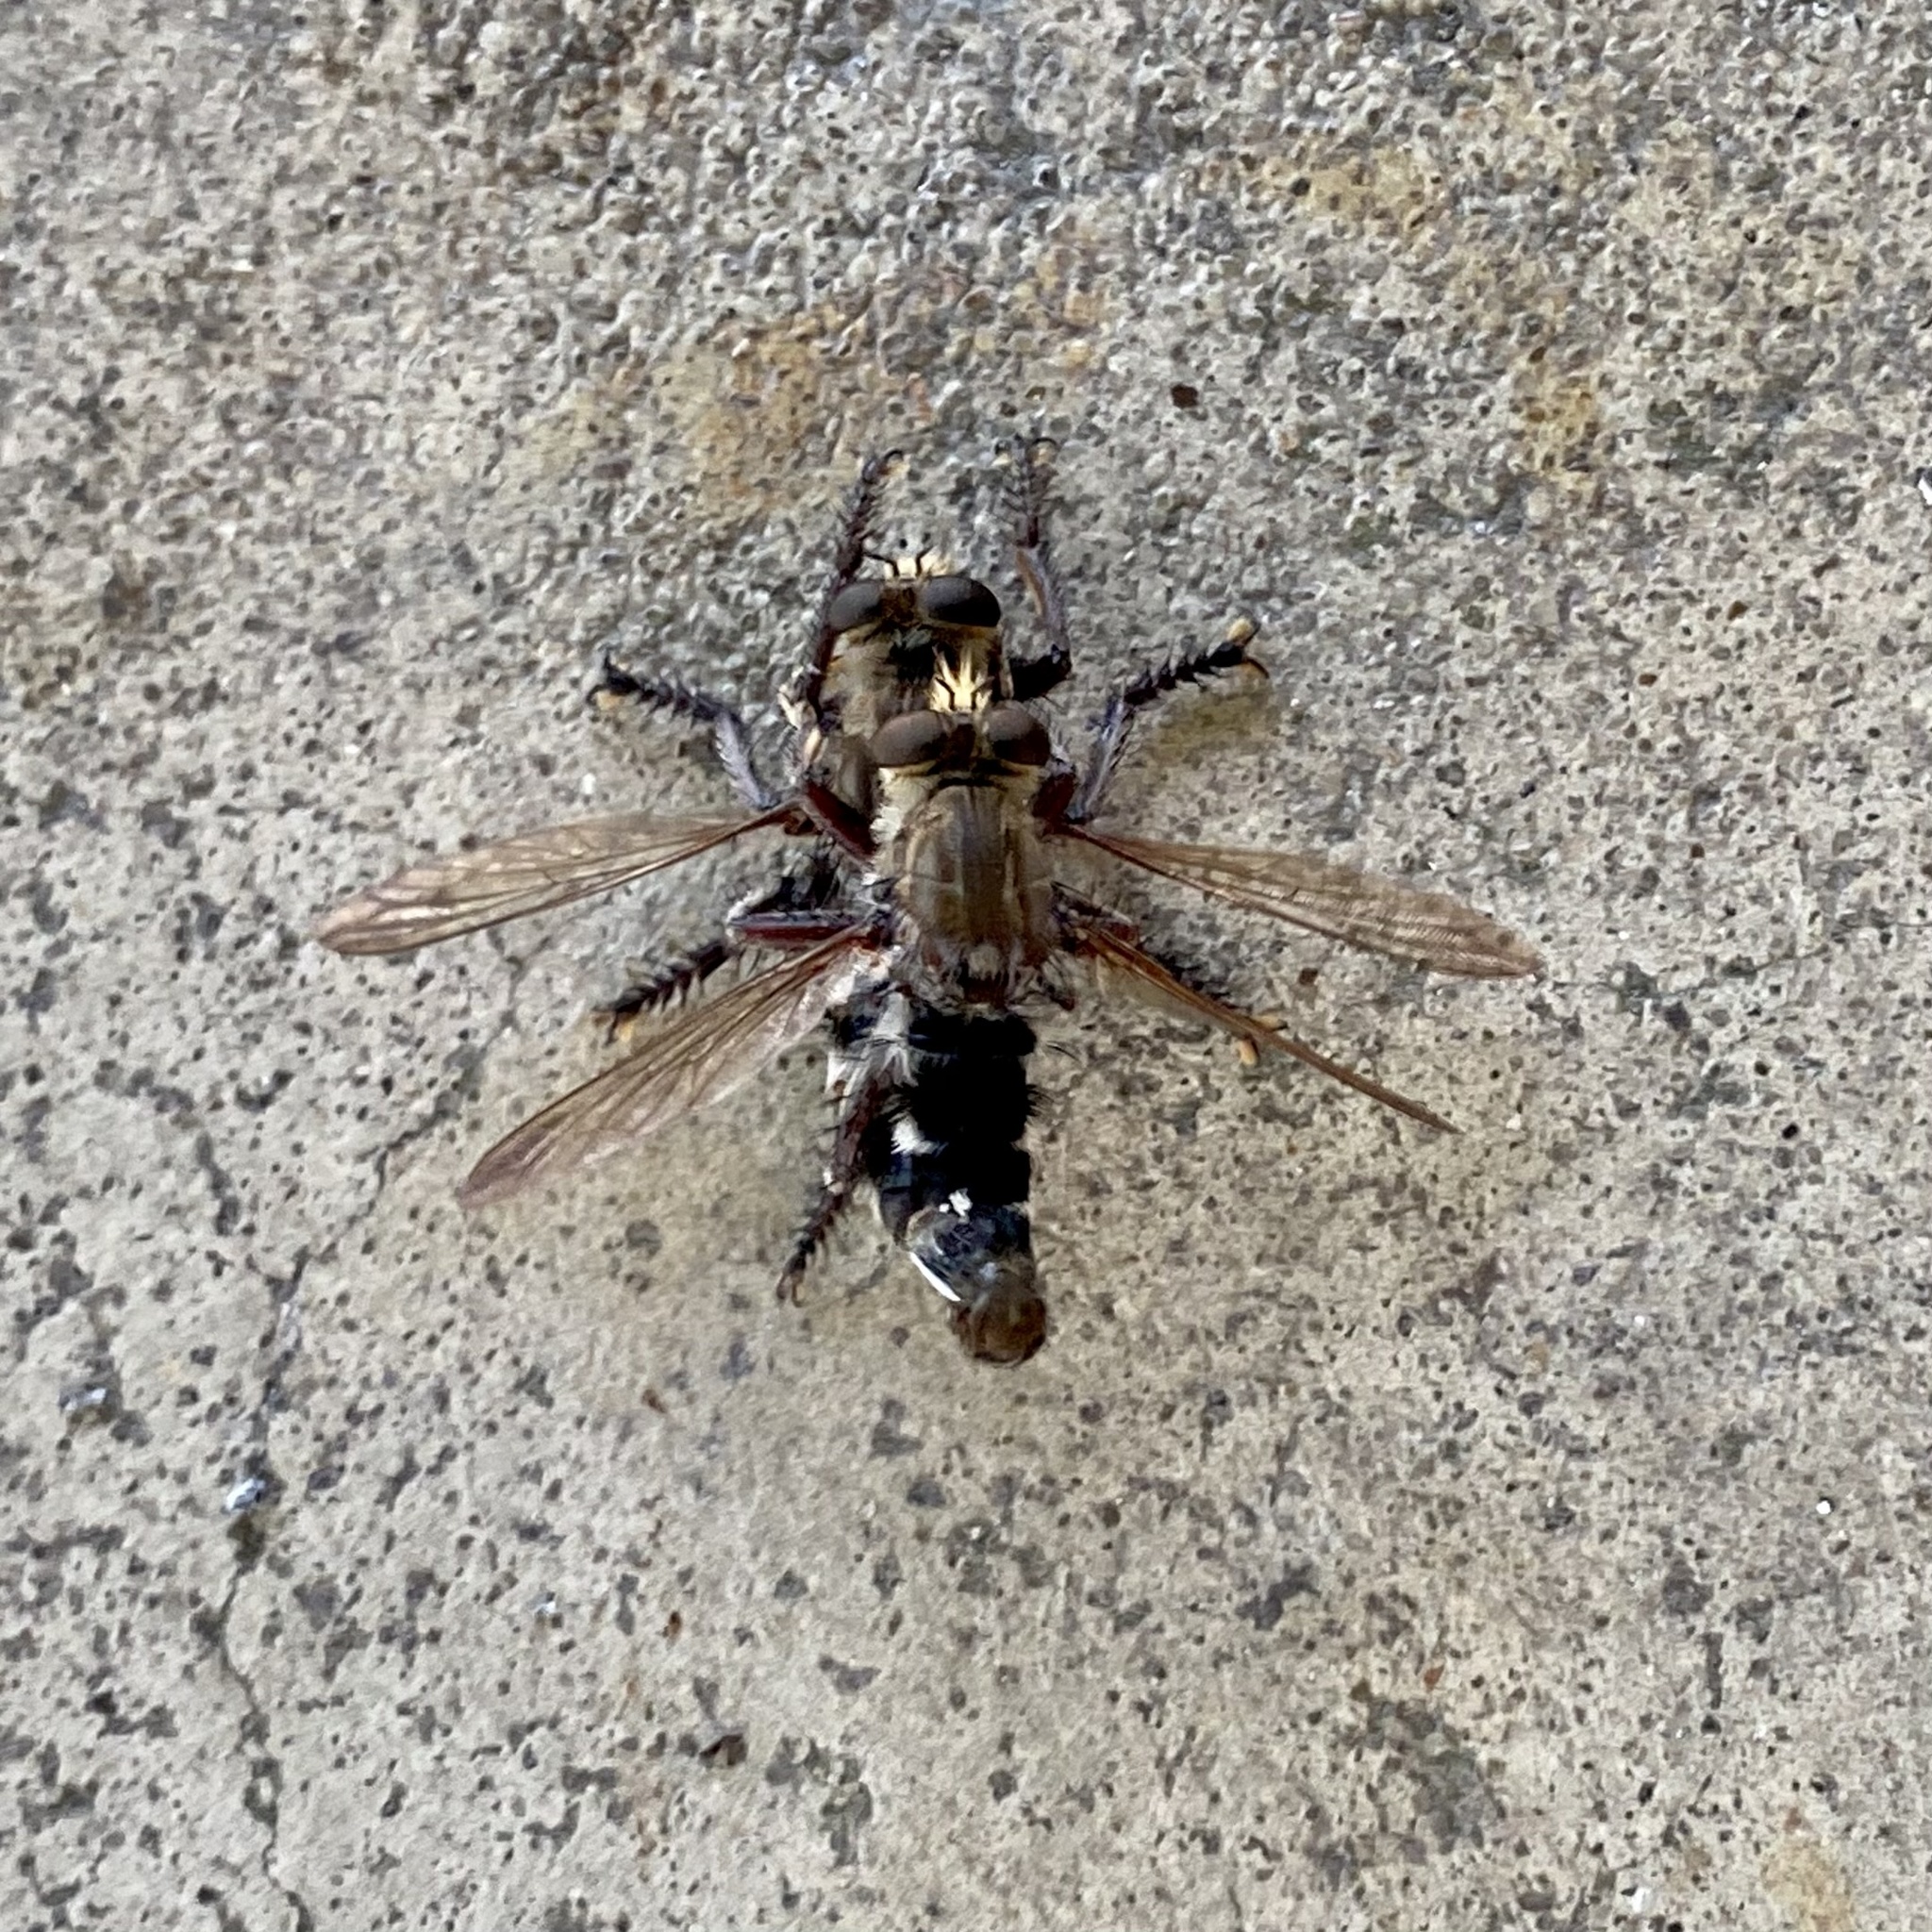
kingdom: Animalia
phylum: Arthropoda
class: Insecta
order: Diptera
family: Asilidae
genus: Promachus
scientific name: Promachus bastardii
